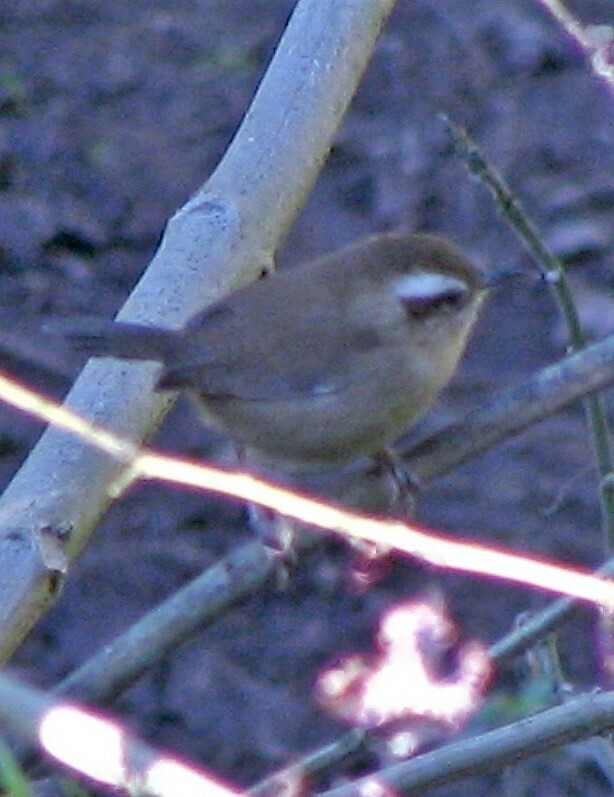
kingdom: Animalia
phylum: Chordata
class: Aves
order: Passeriformes
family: Troglodytidae
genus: Troglodytes
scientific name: Troglodytes solstitialis
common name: Mountain wren
